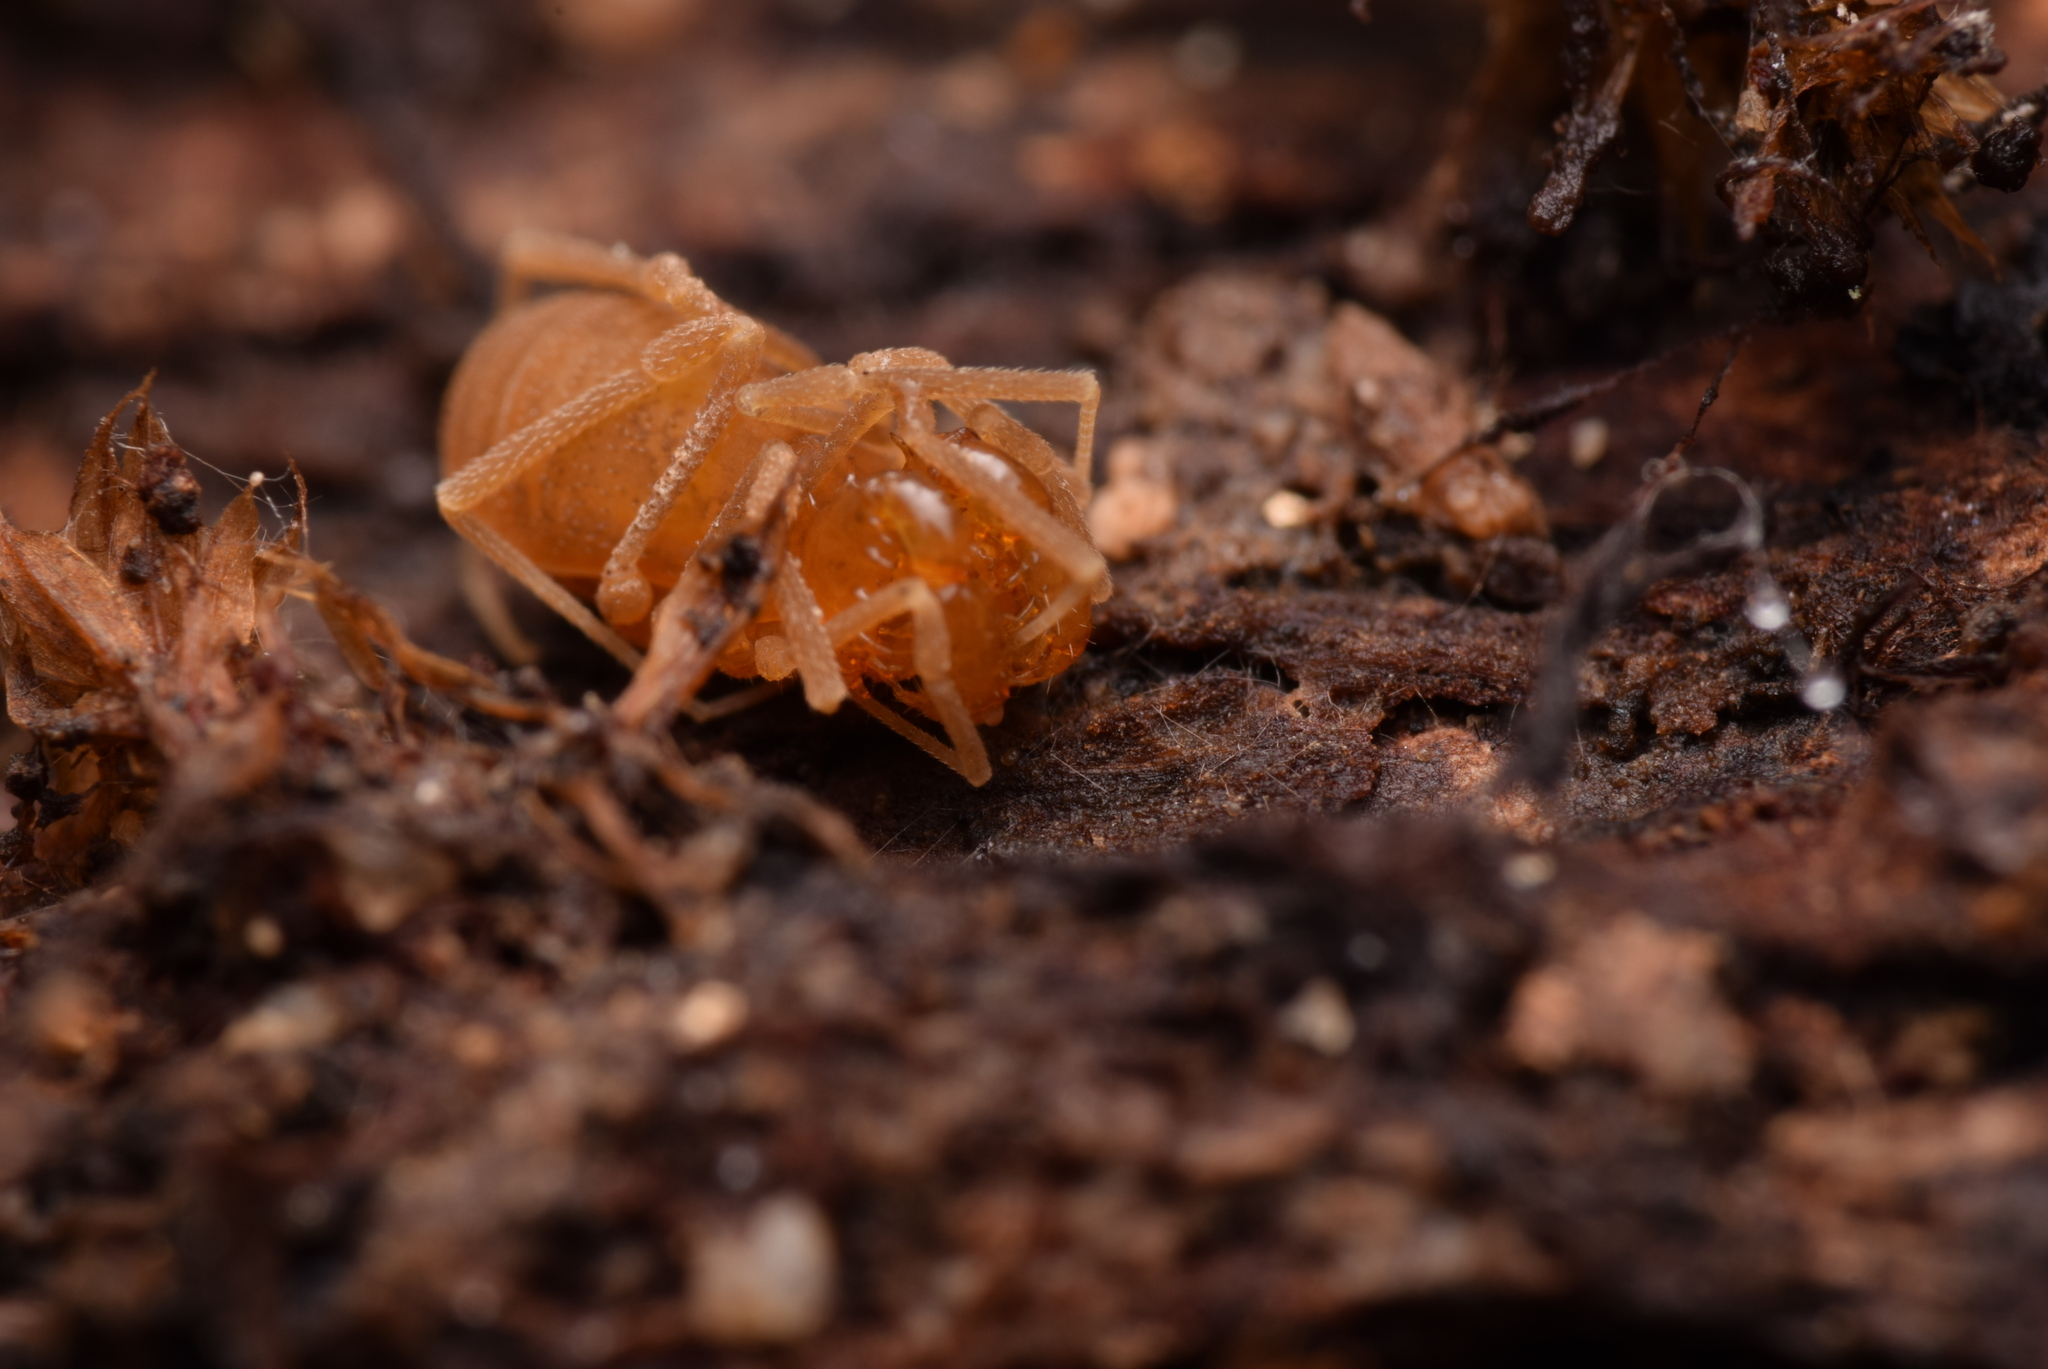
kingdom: Animalia
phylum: Arthropoda
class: Arachnida
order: Opiliones
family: Cladonychiidae
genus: Holoscotolemon
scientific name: Holoscotolemon querilhaci
